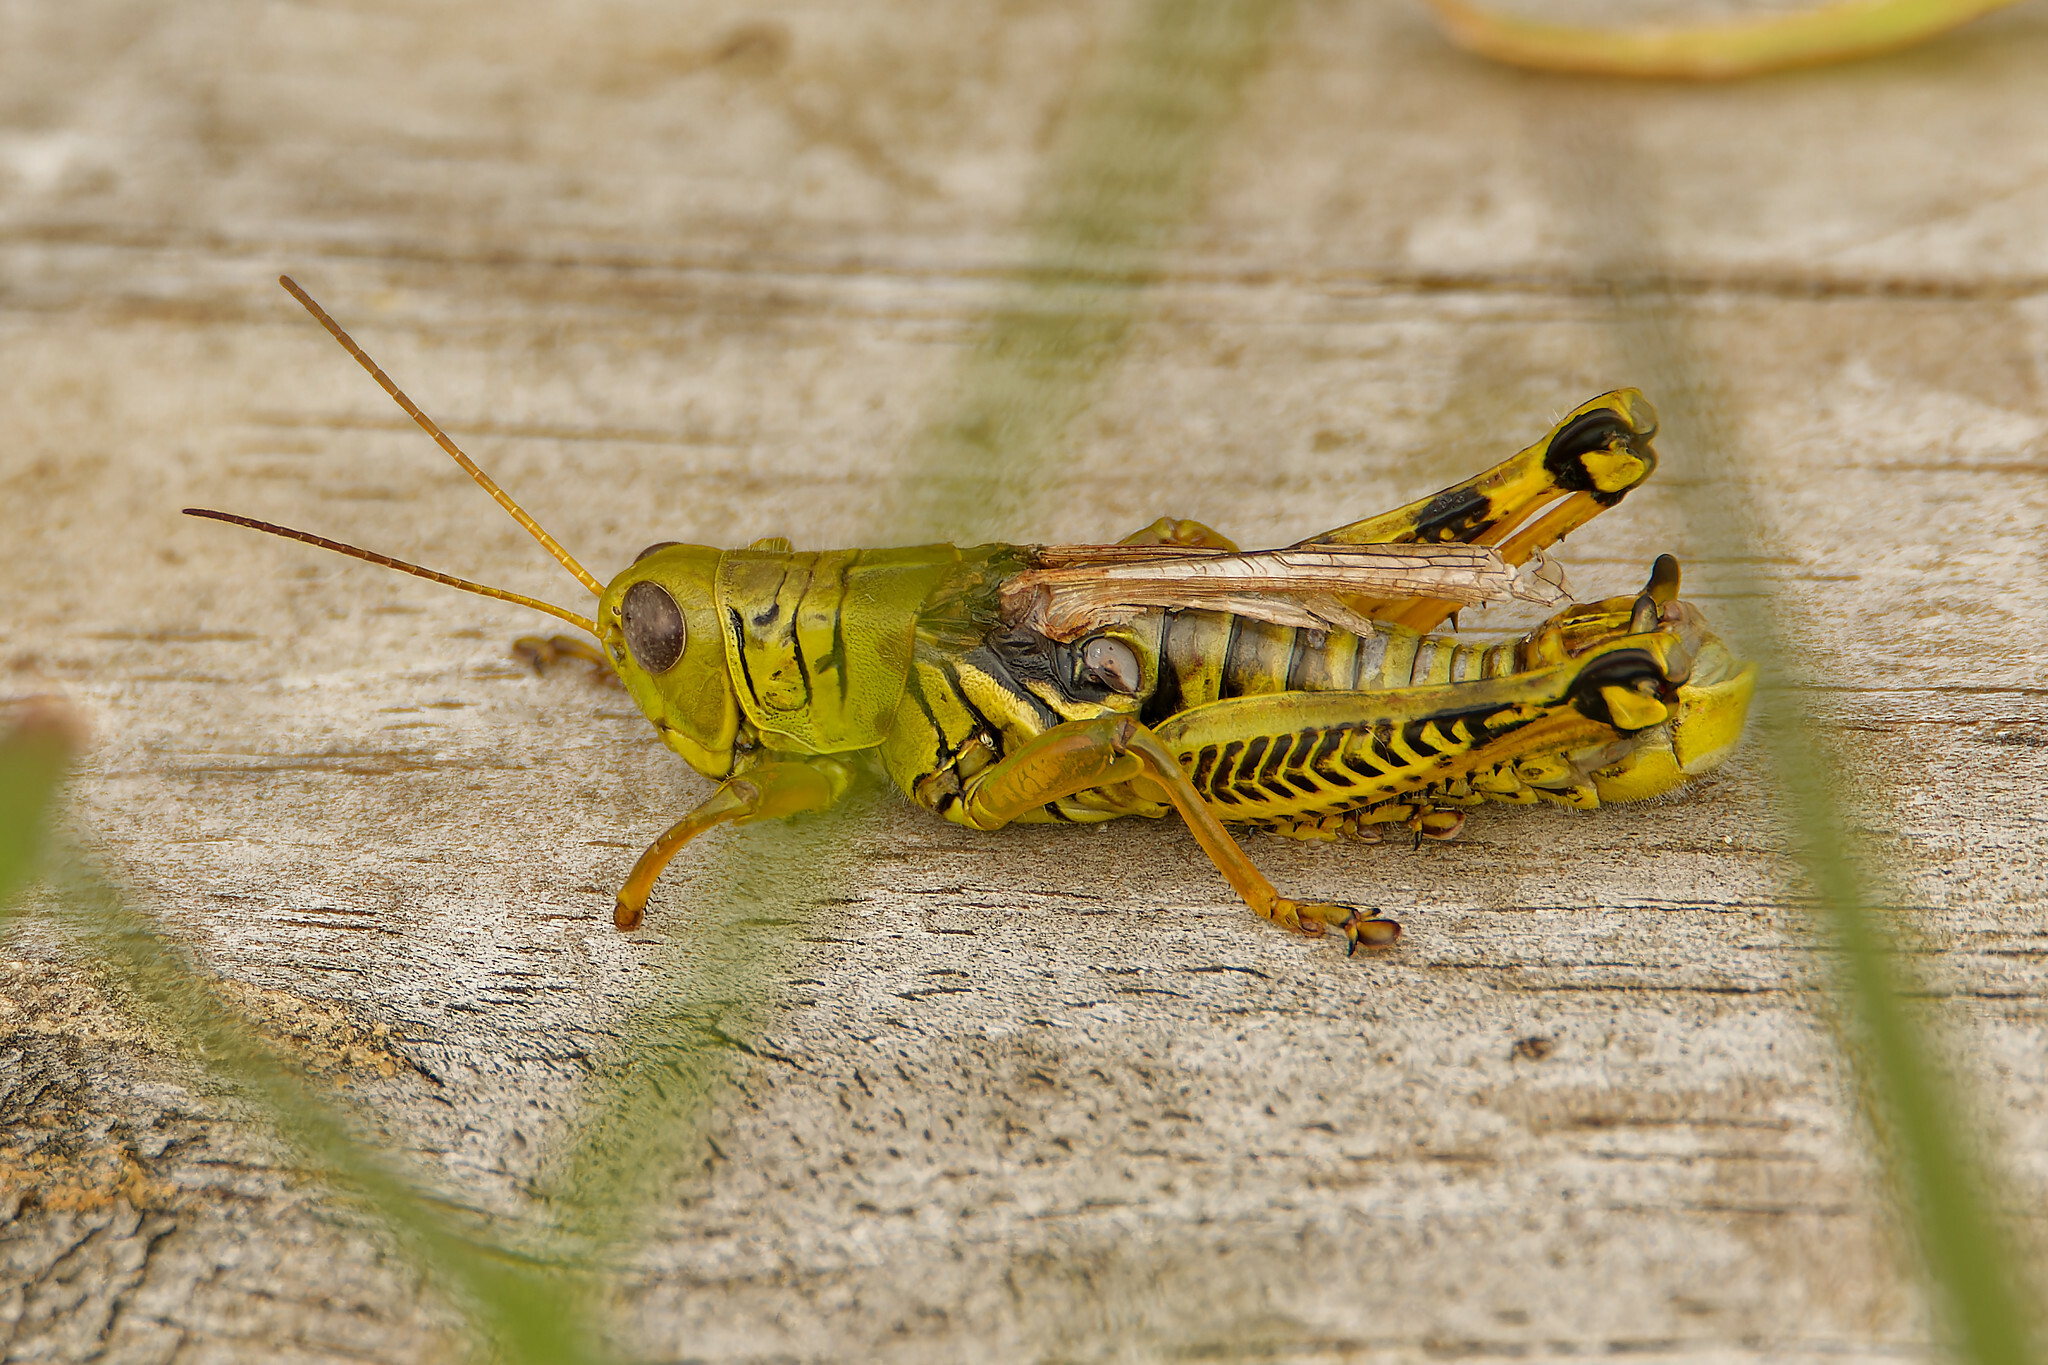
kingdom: Animalia
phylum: Arthropoda
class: Insecta
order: Orthoptera
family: Acrididae
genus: Melanoplus
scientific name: Melanoplus differentialis
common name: Differential grasshopper
